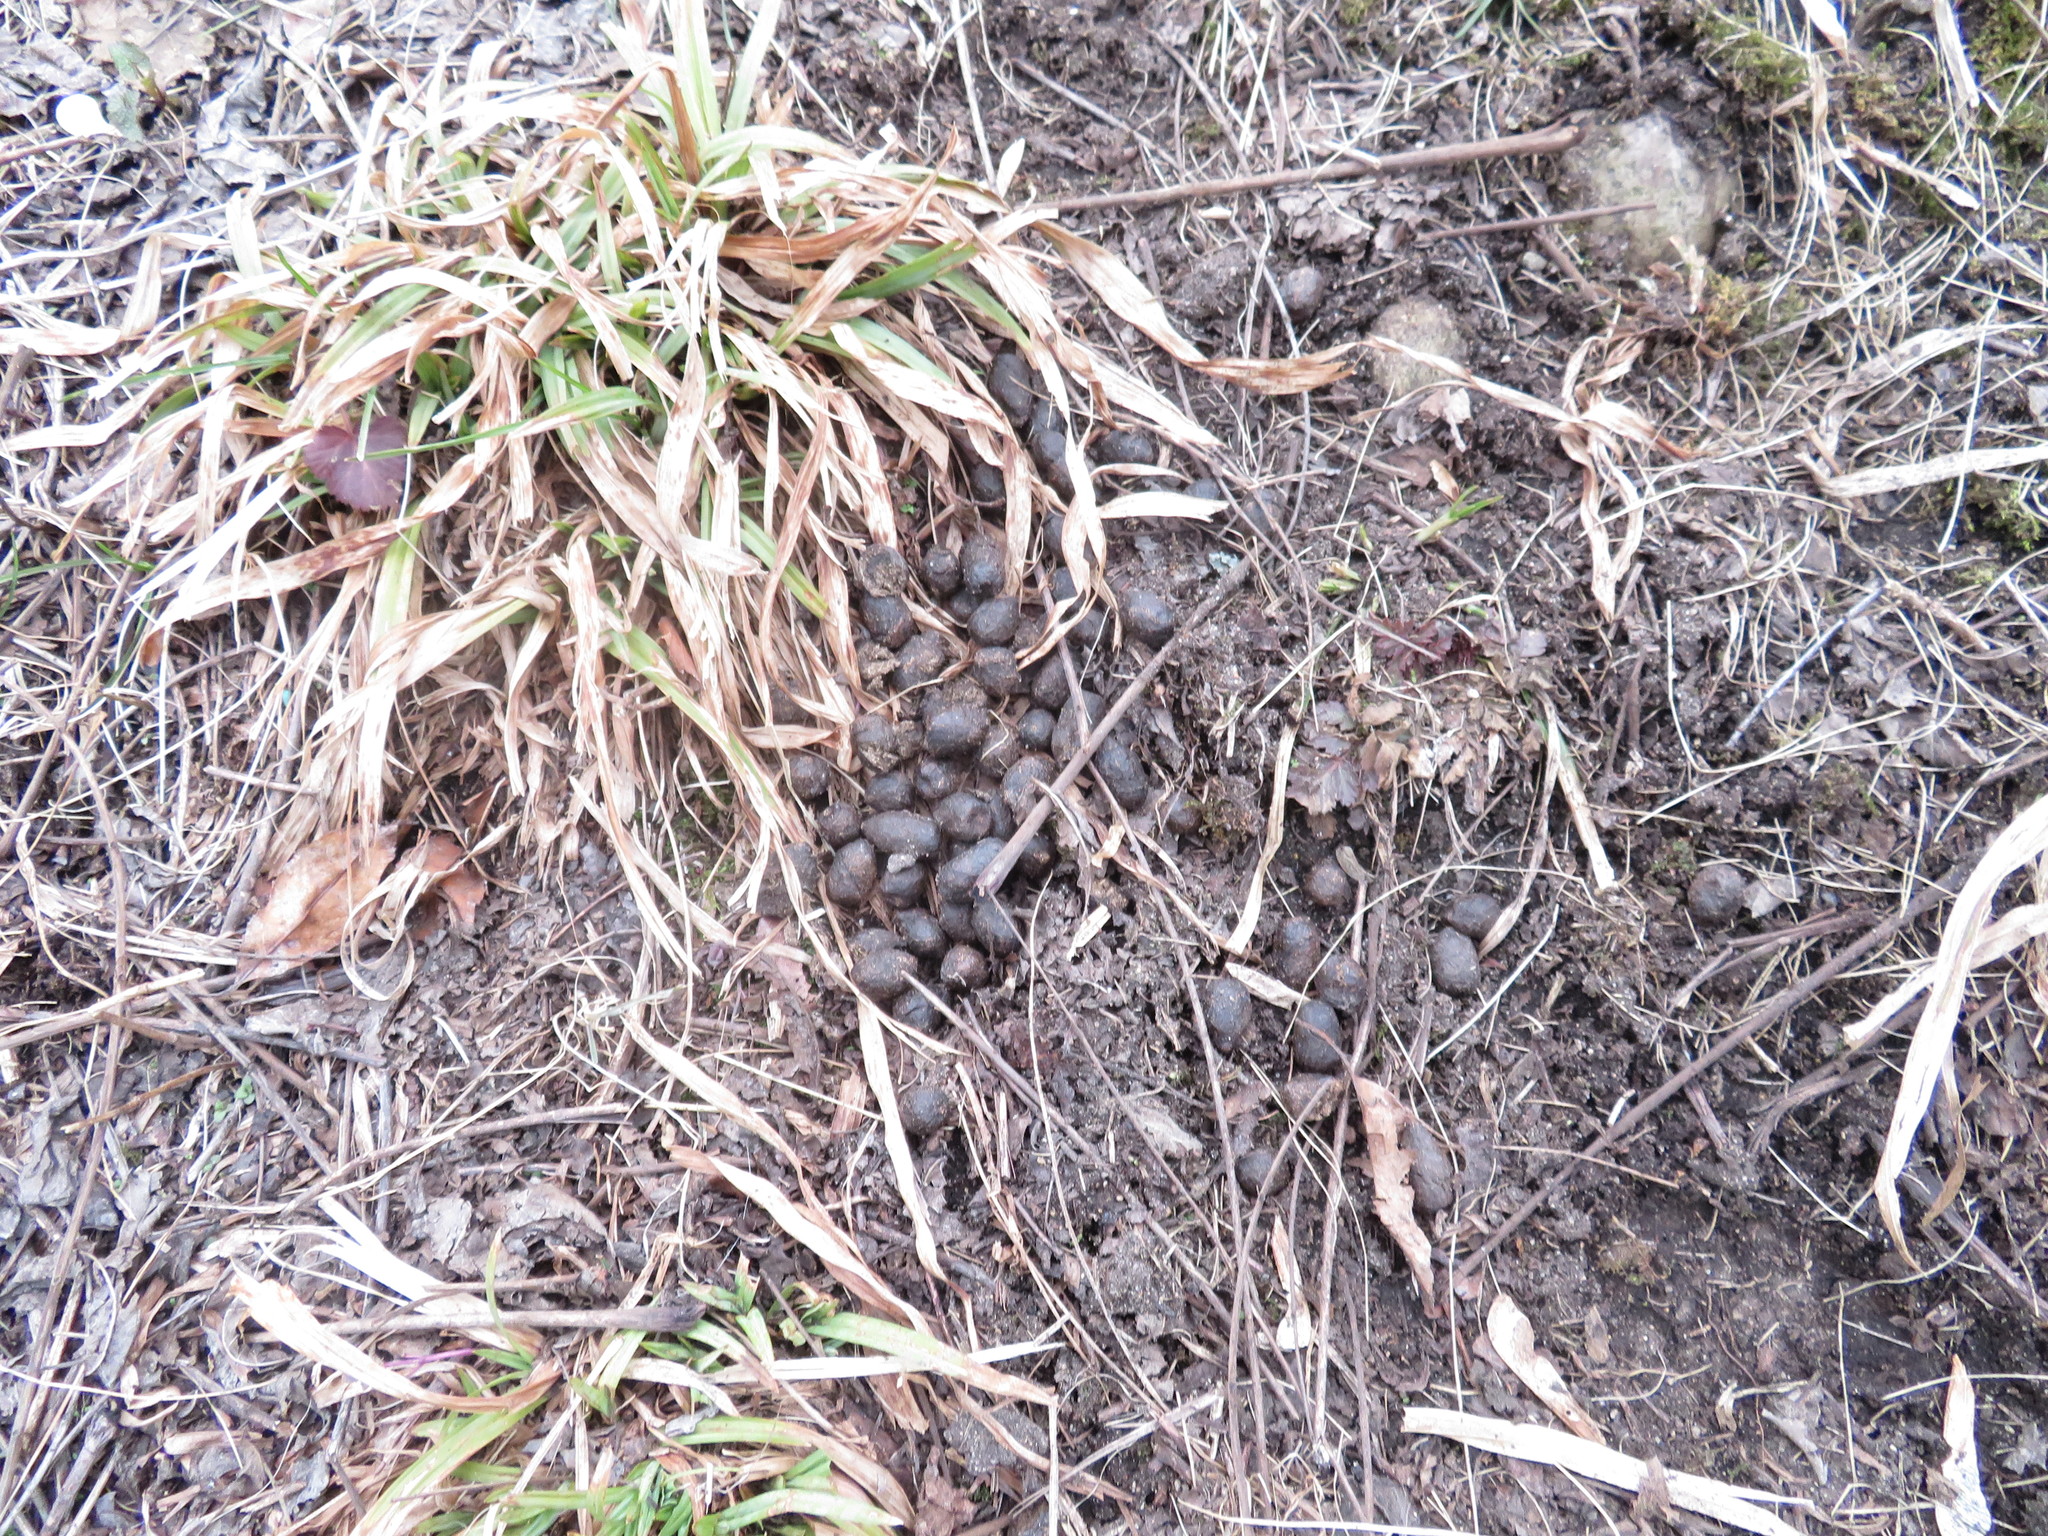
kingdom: Animalia
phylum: Chordata
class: Mammalia
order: Artiodactyla
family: Cervidae
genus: Odocoileus
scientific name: Odocoileus virginianus
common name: White-tailed deer
